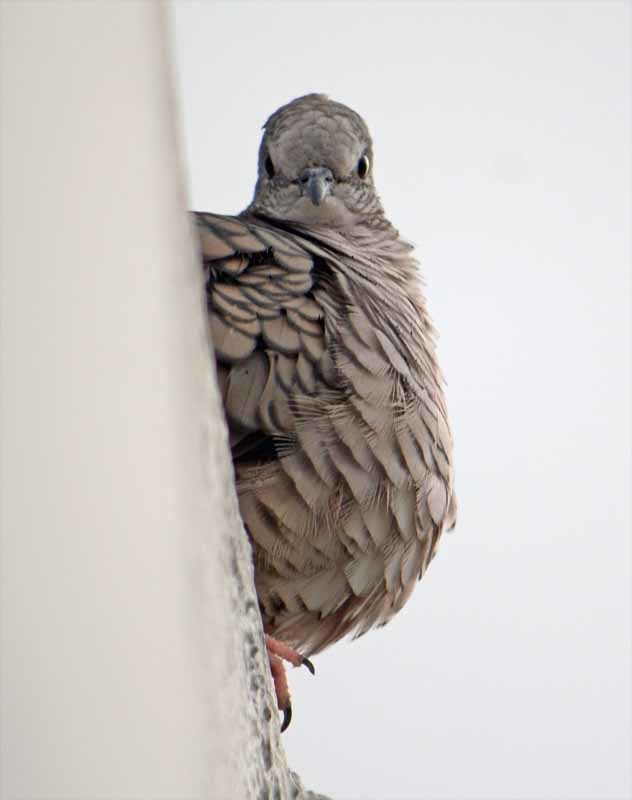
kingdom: Animalia
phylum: Chordata
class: Aves
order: Columbiformes
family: Columbidae
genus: Columbina
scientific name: Columbina inca
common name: Inca dove
